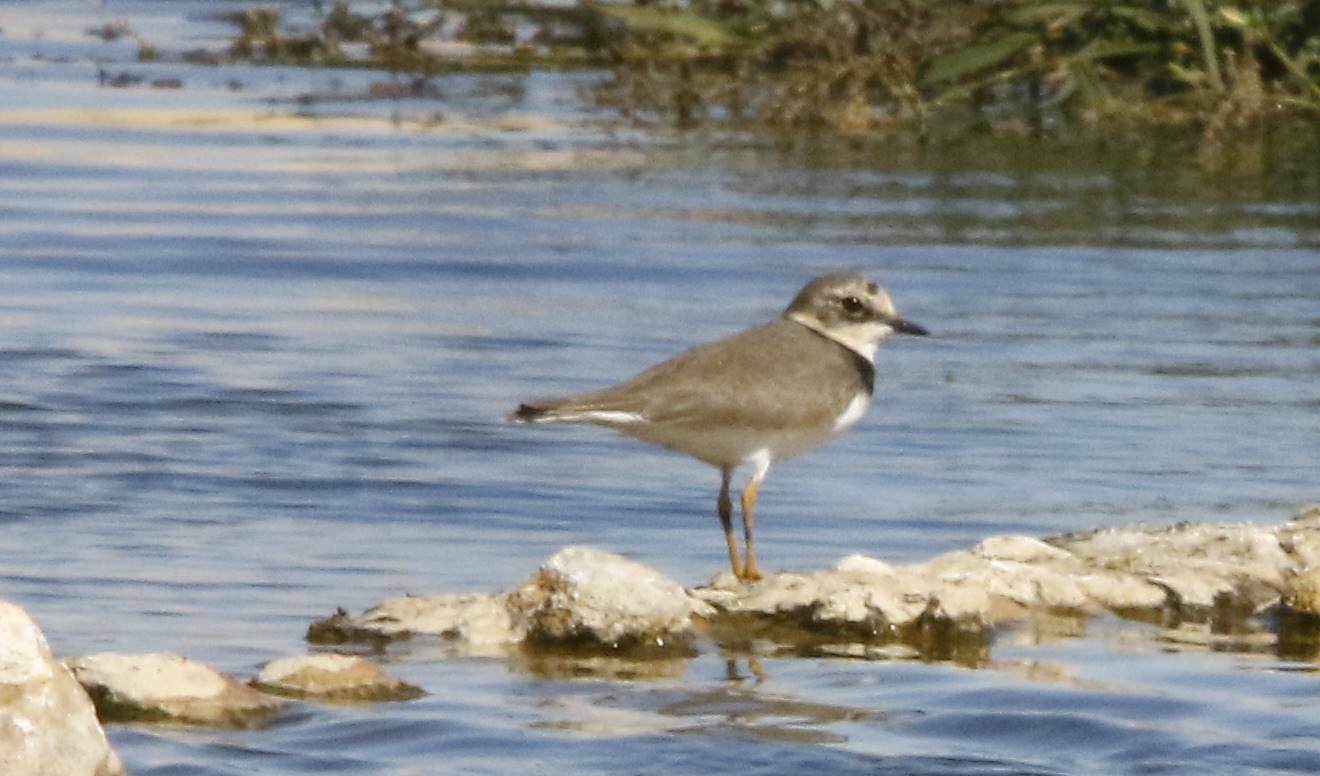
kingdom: Animalia
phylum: Chordata
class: Aves
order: Charadriiformes
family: Charadriidae
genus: Charadrius
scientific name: Charadrius dubius
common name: Little ringed plover
